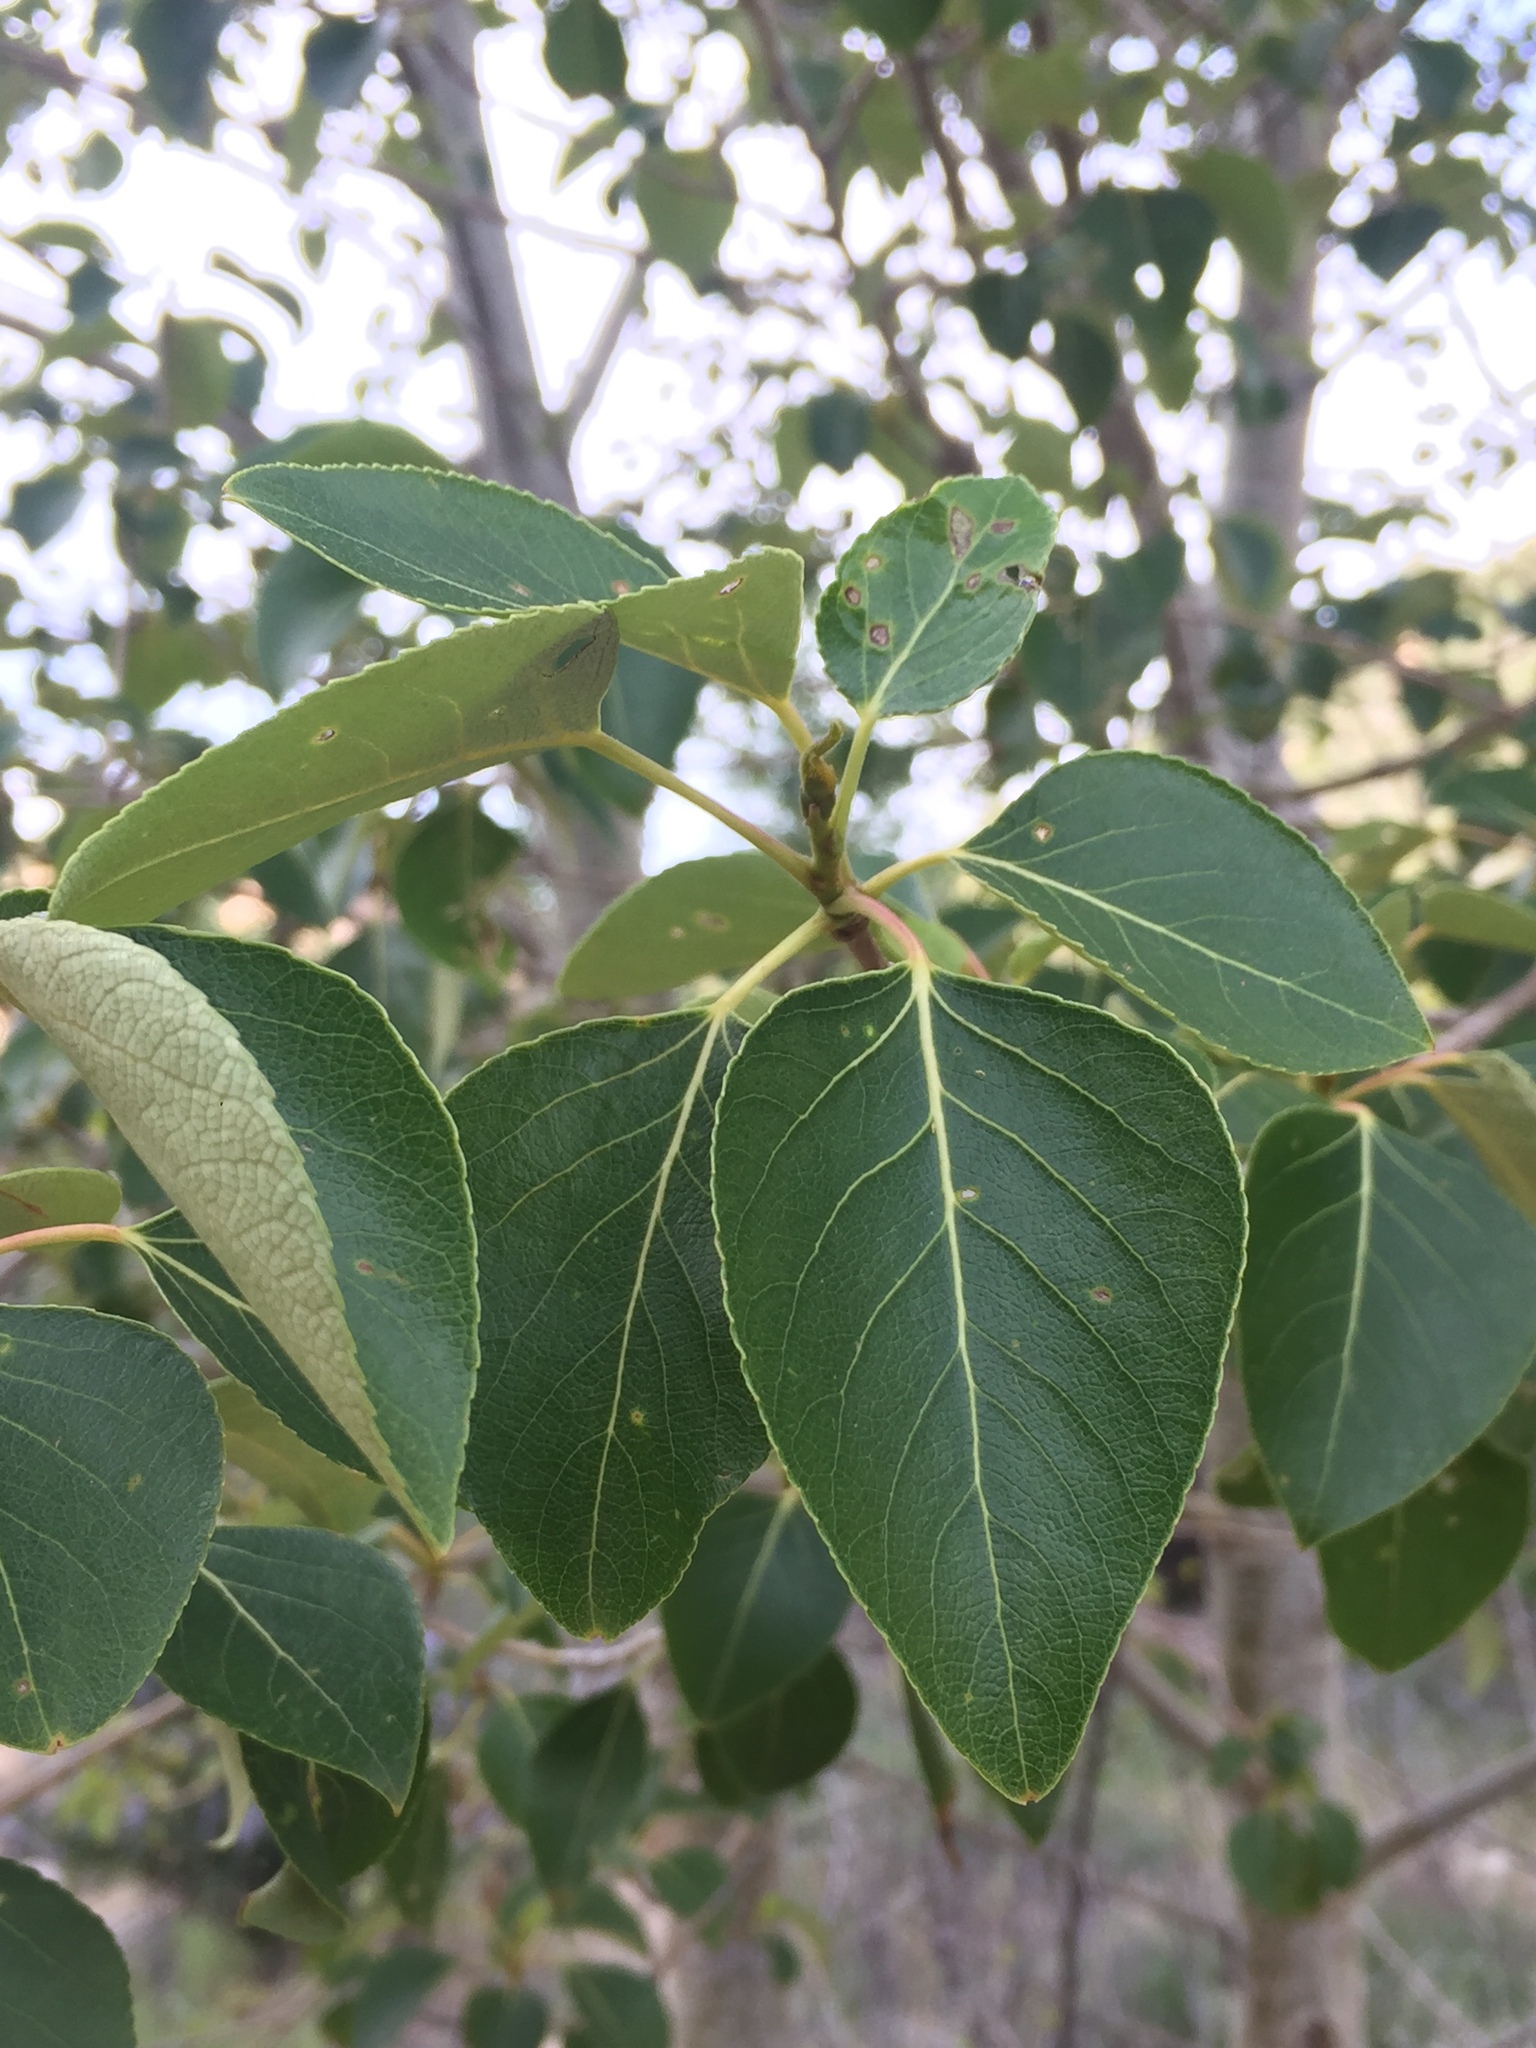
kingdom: Plantae
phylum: Tracheophyta
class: Magnoliopsida
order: Malpighiales
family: Salicaceae
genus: Populus
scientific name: Populus trichocarpa
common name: Black cottonwood
